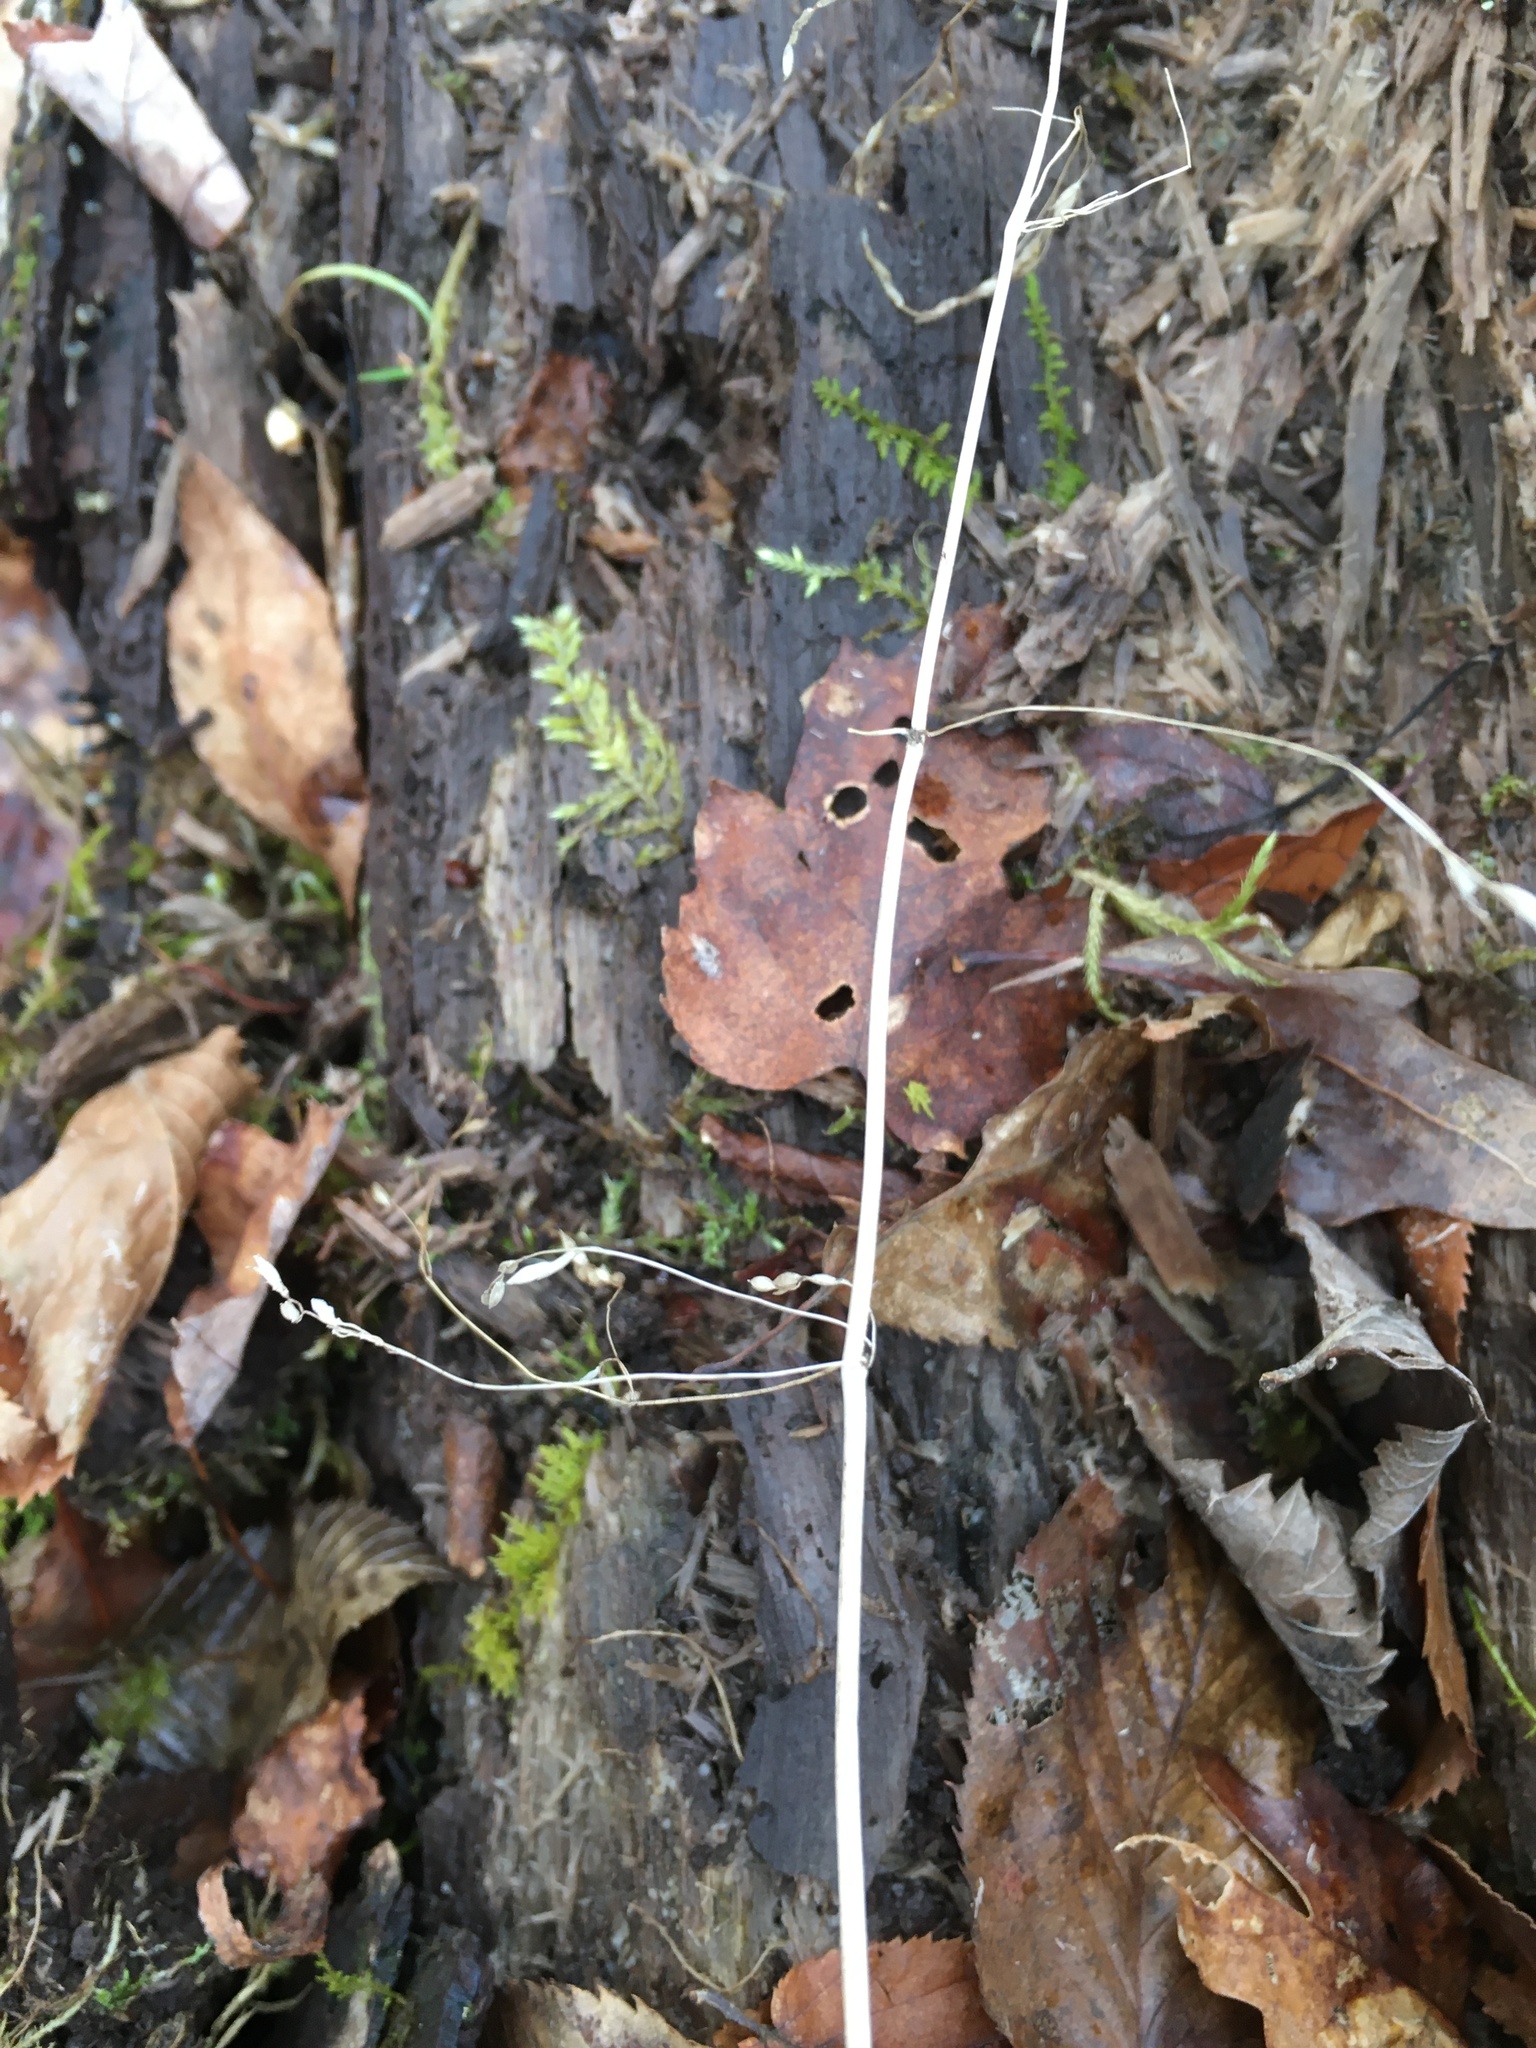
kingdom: Plantae
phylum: Tracheophyta
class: Liliopsida
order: Poales
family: Poaceae
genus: Milium
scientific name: Milium effusum
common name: Wood millet
